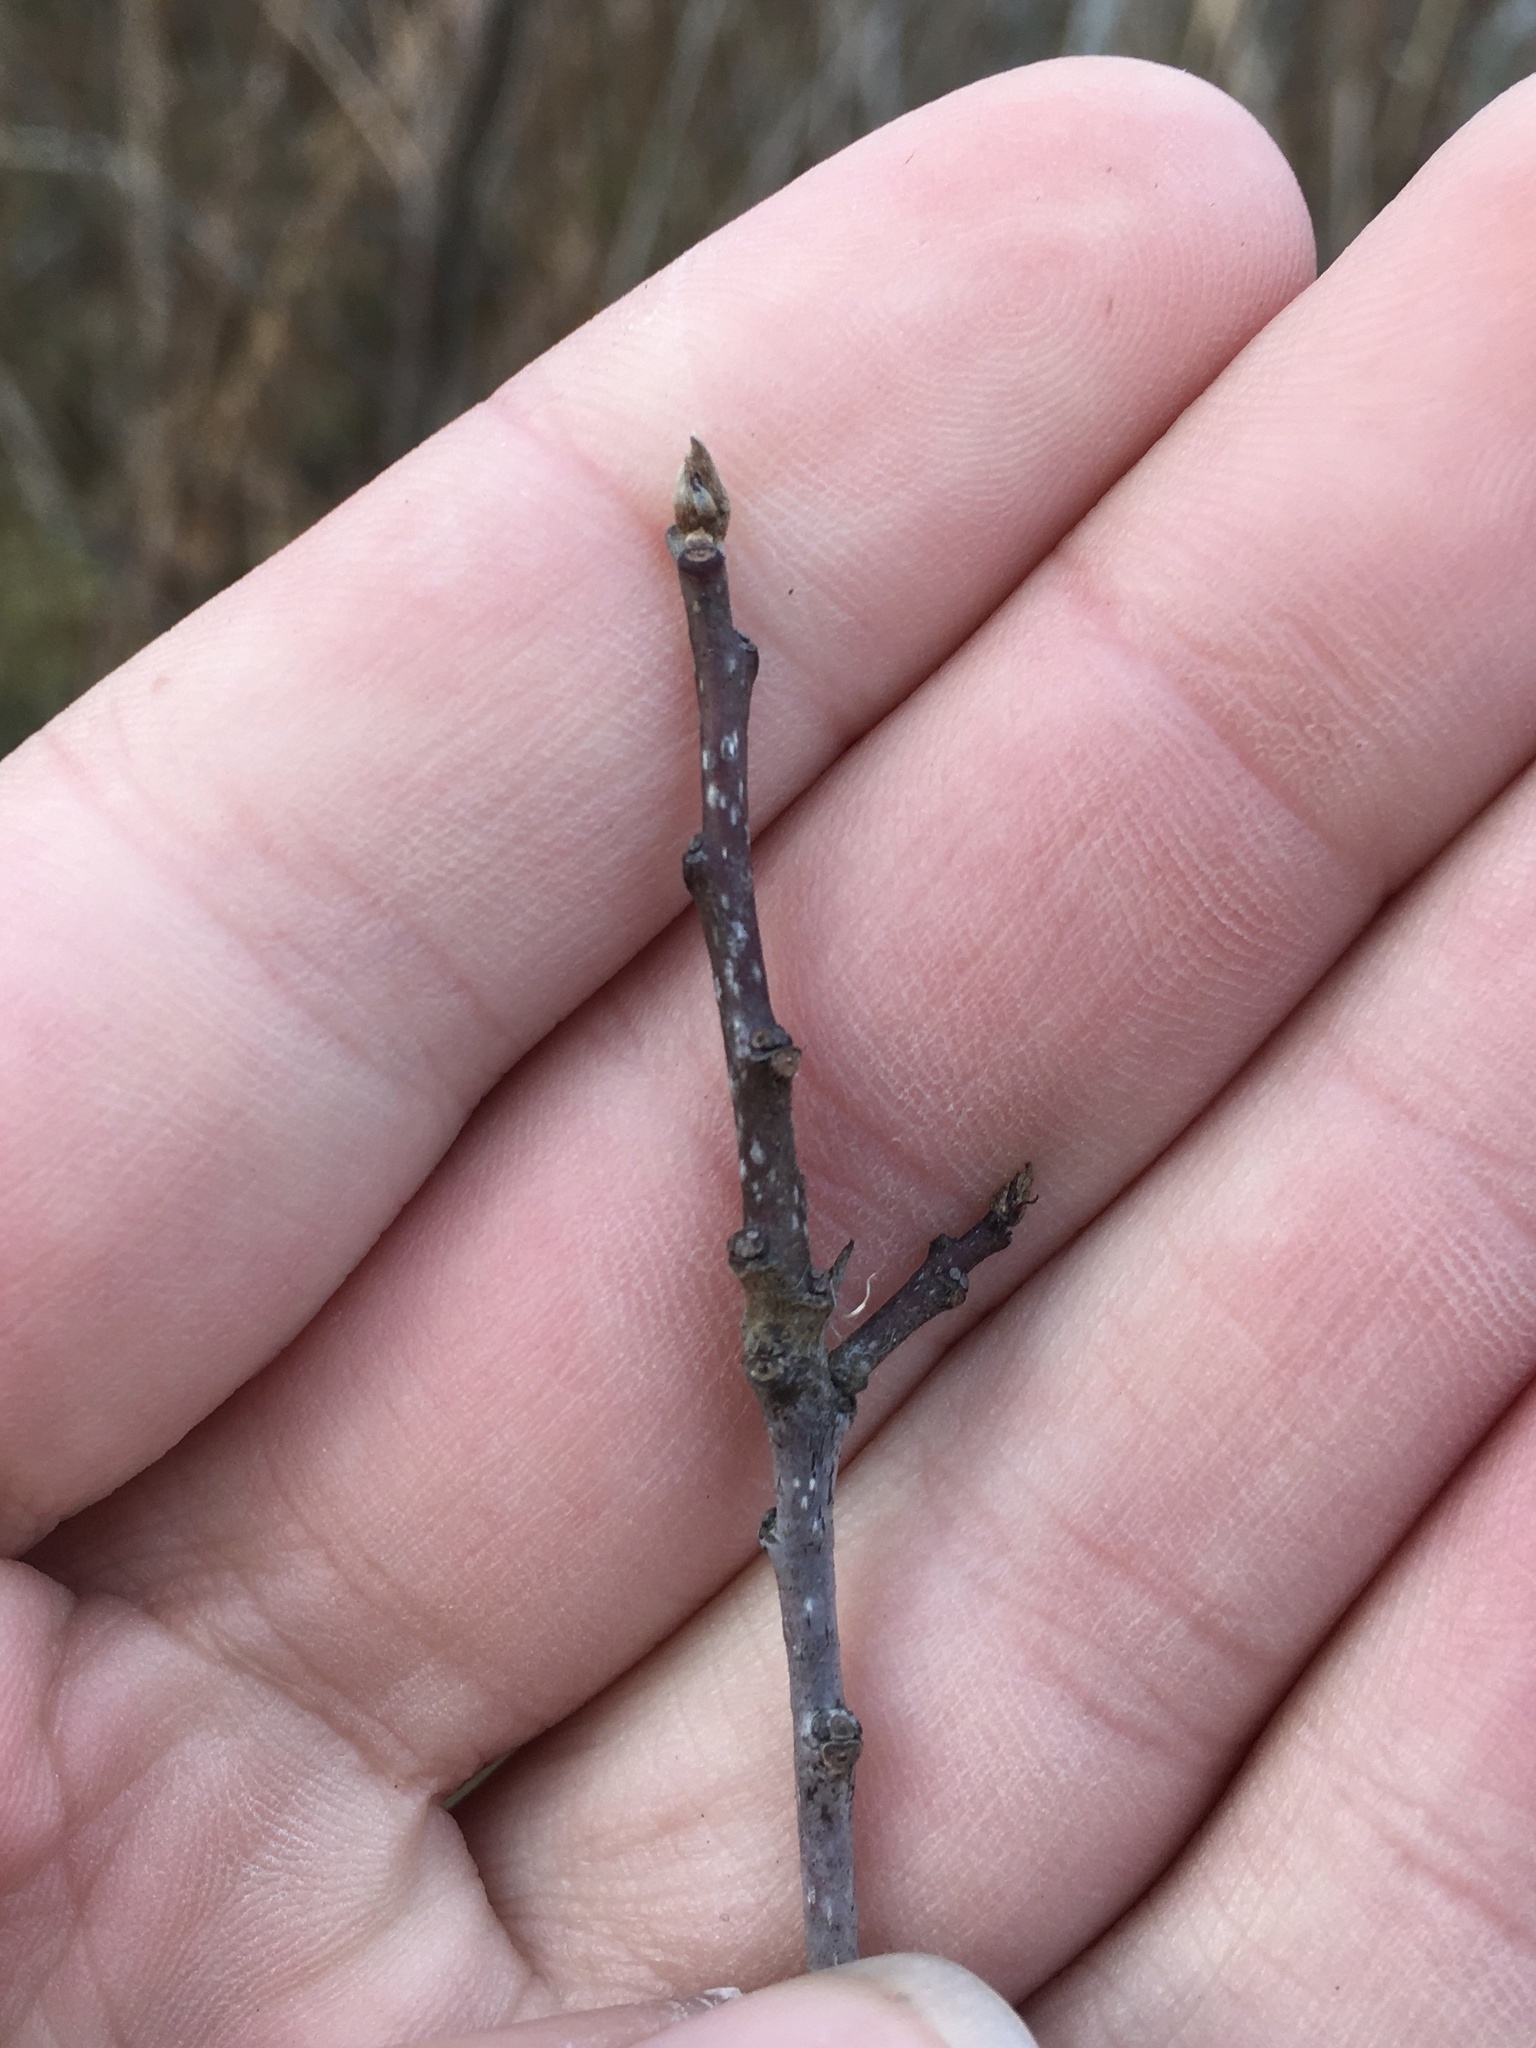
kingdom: Plantae
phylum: Tracheophyta
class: Magnoliopsida
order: Rosales
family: Rhamnaceae
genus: Frangula
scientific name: Frangula alnus
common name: Alder buckthorn
